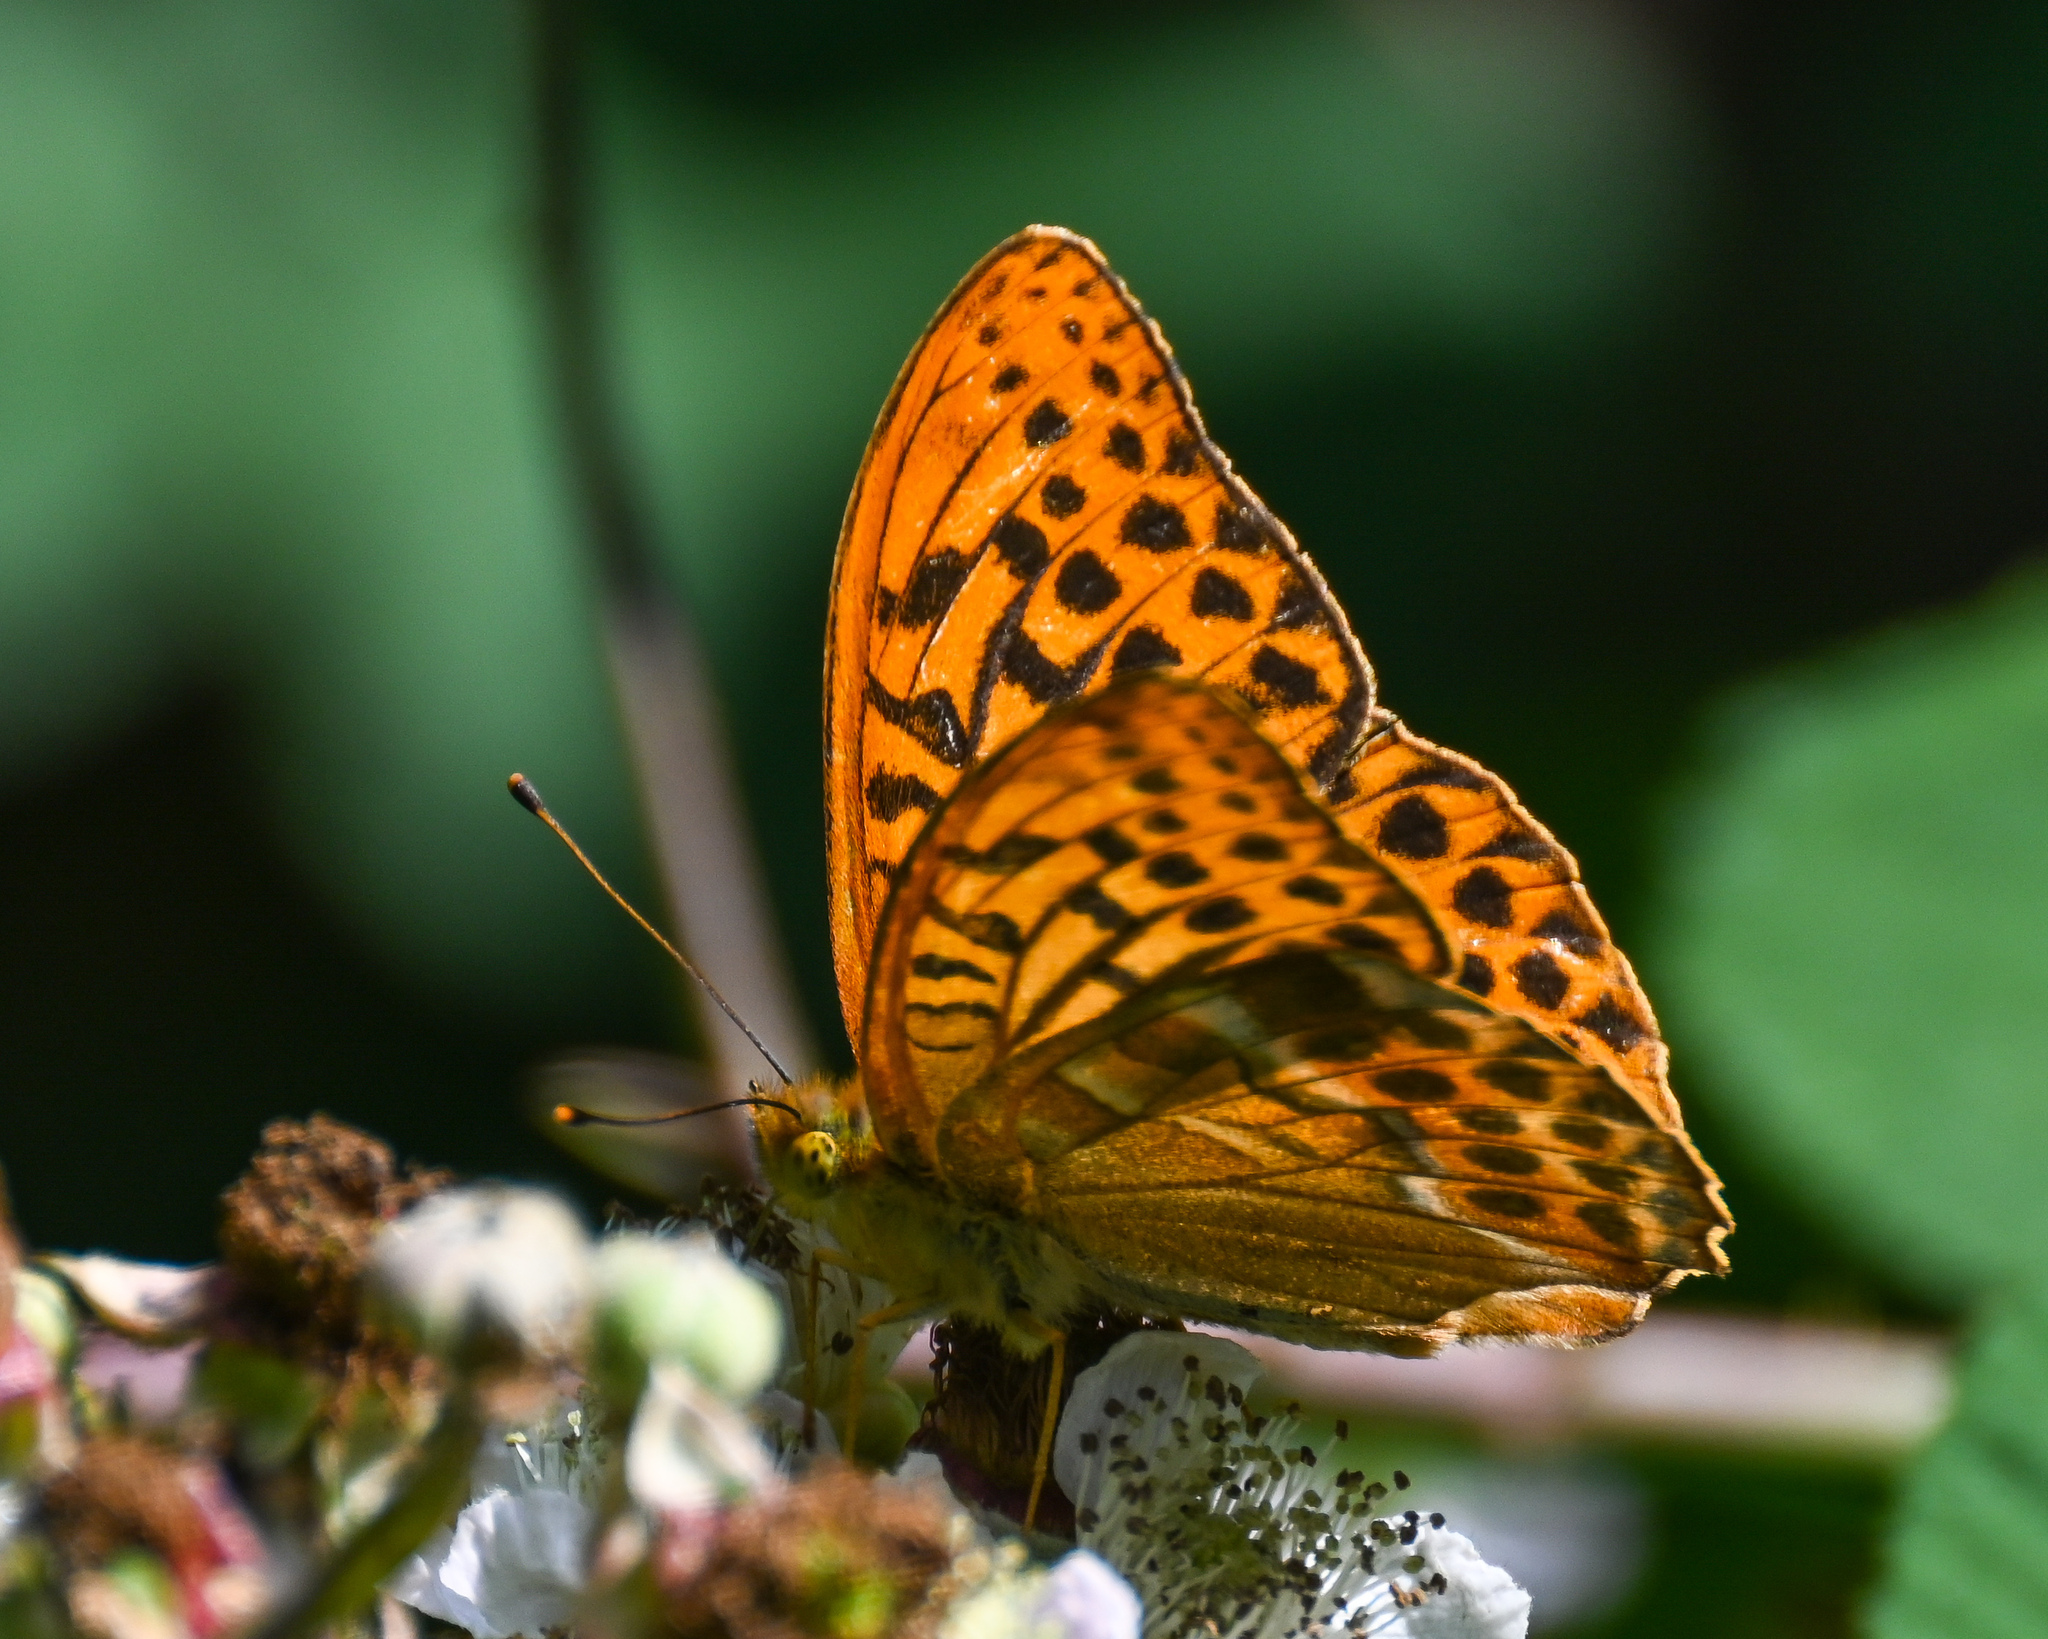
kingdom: Animalia
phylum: Arthropoda
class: Insecta
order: Lepidoptera
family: Nymphalidae
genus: Argynnis
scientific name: Argynnis paphia
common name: Silver-washed fritillary
